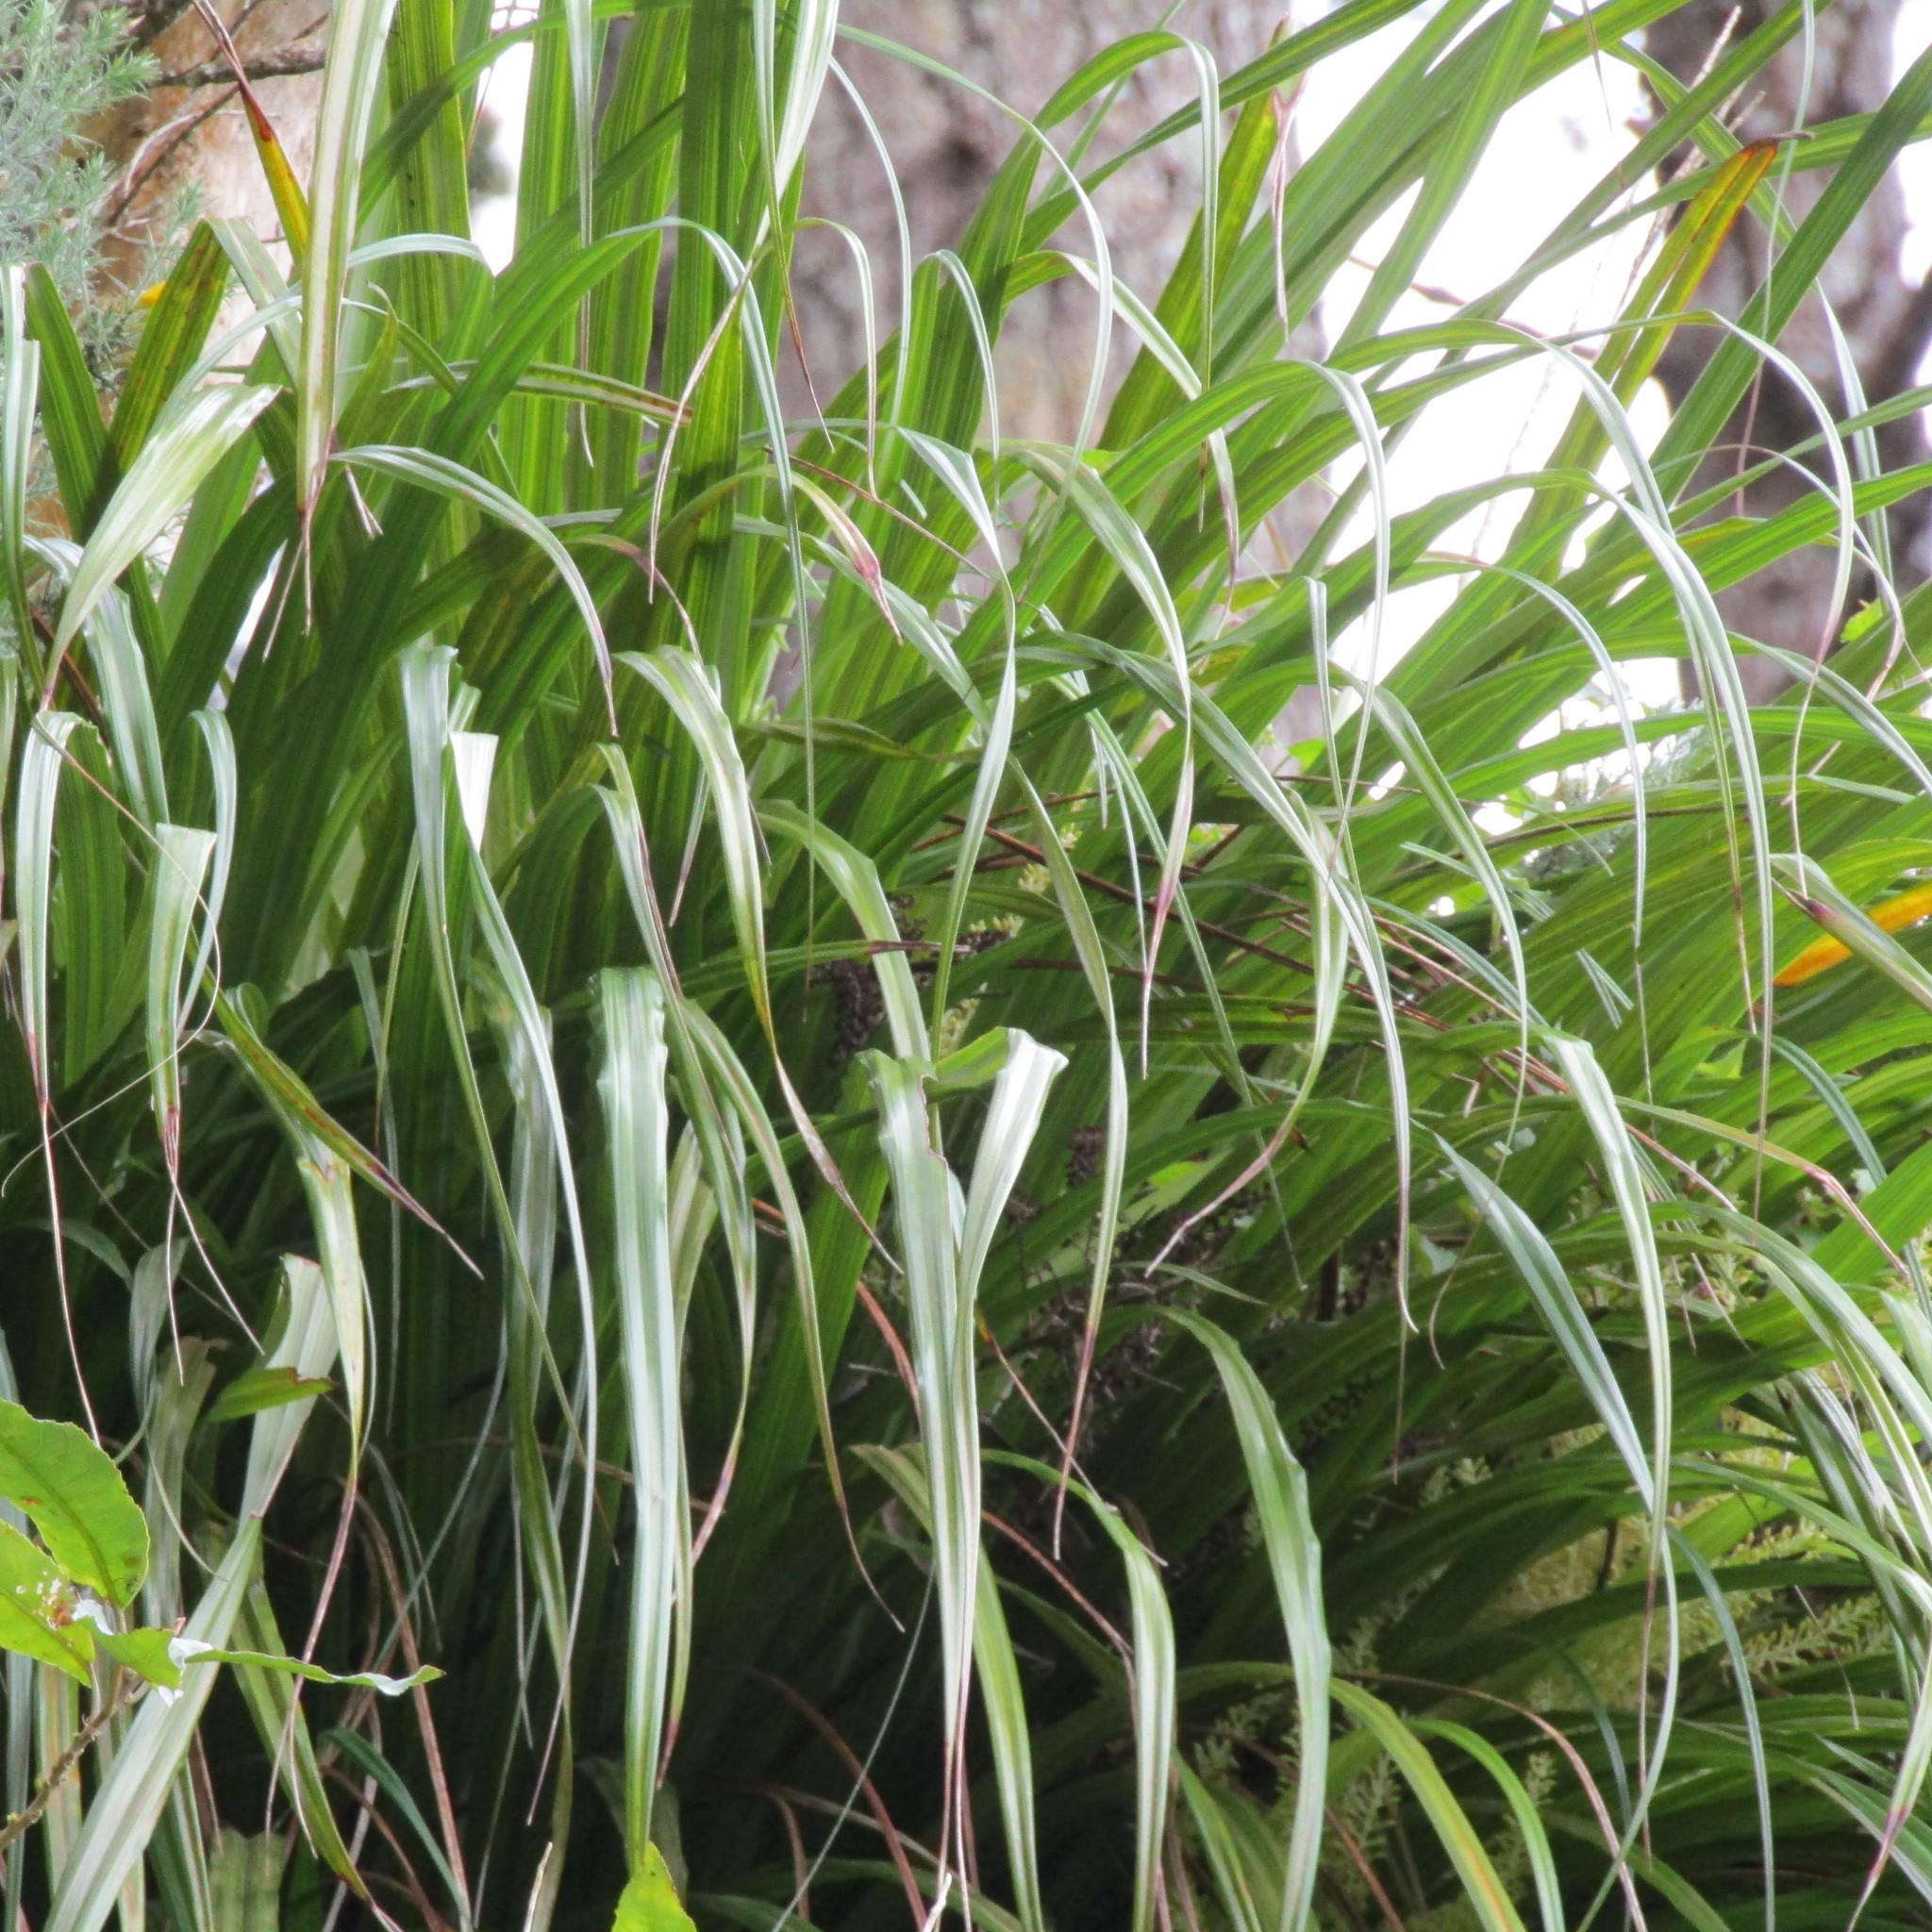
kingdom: Plantae
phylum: Tracheophyta
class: Liliopsida
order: Asparagales
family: Asteliaceae
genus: Astelia
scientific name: Astelia solandri
